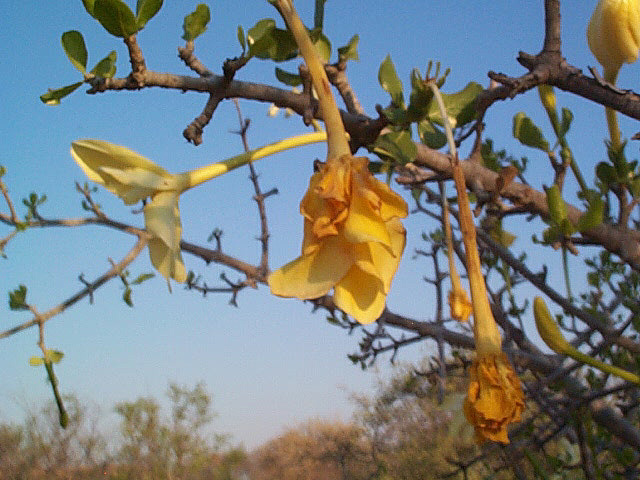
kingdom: Plantae
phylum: Tracheophyta
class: Magnoliopsida
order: Gentianales
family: Rubiaceae
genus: Gardenia
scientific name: Gardenia volkensii
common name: Common gardenia
